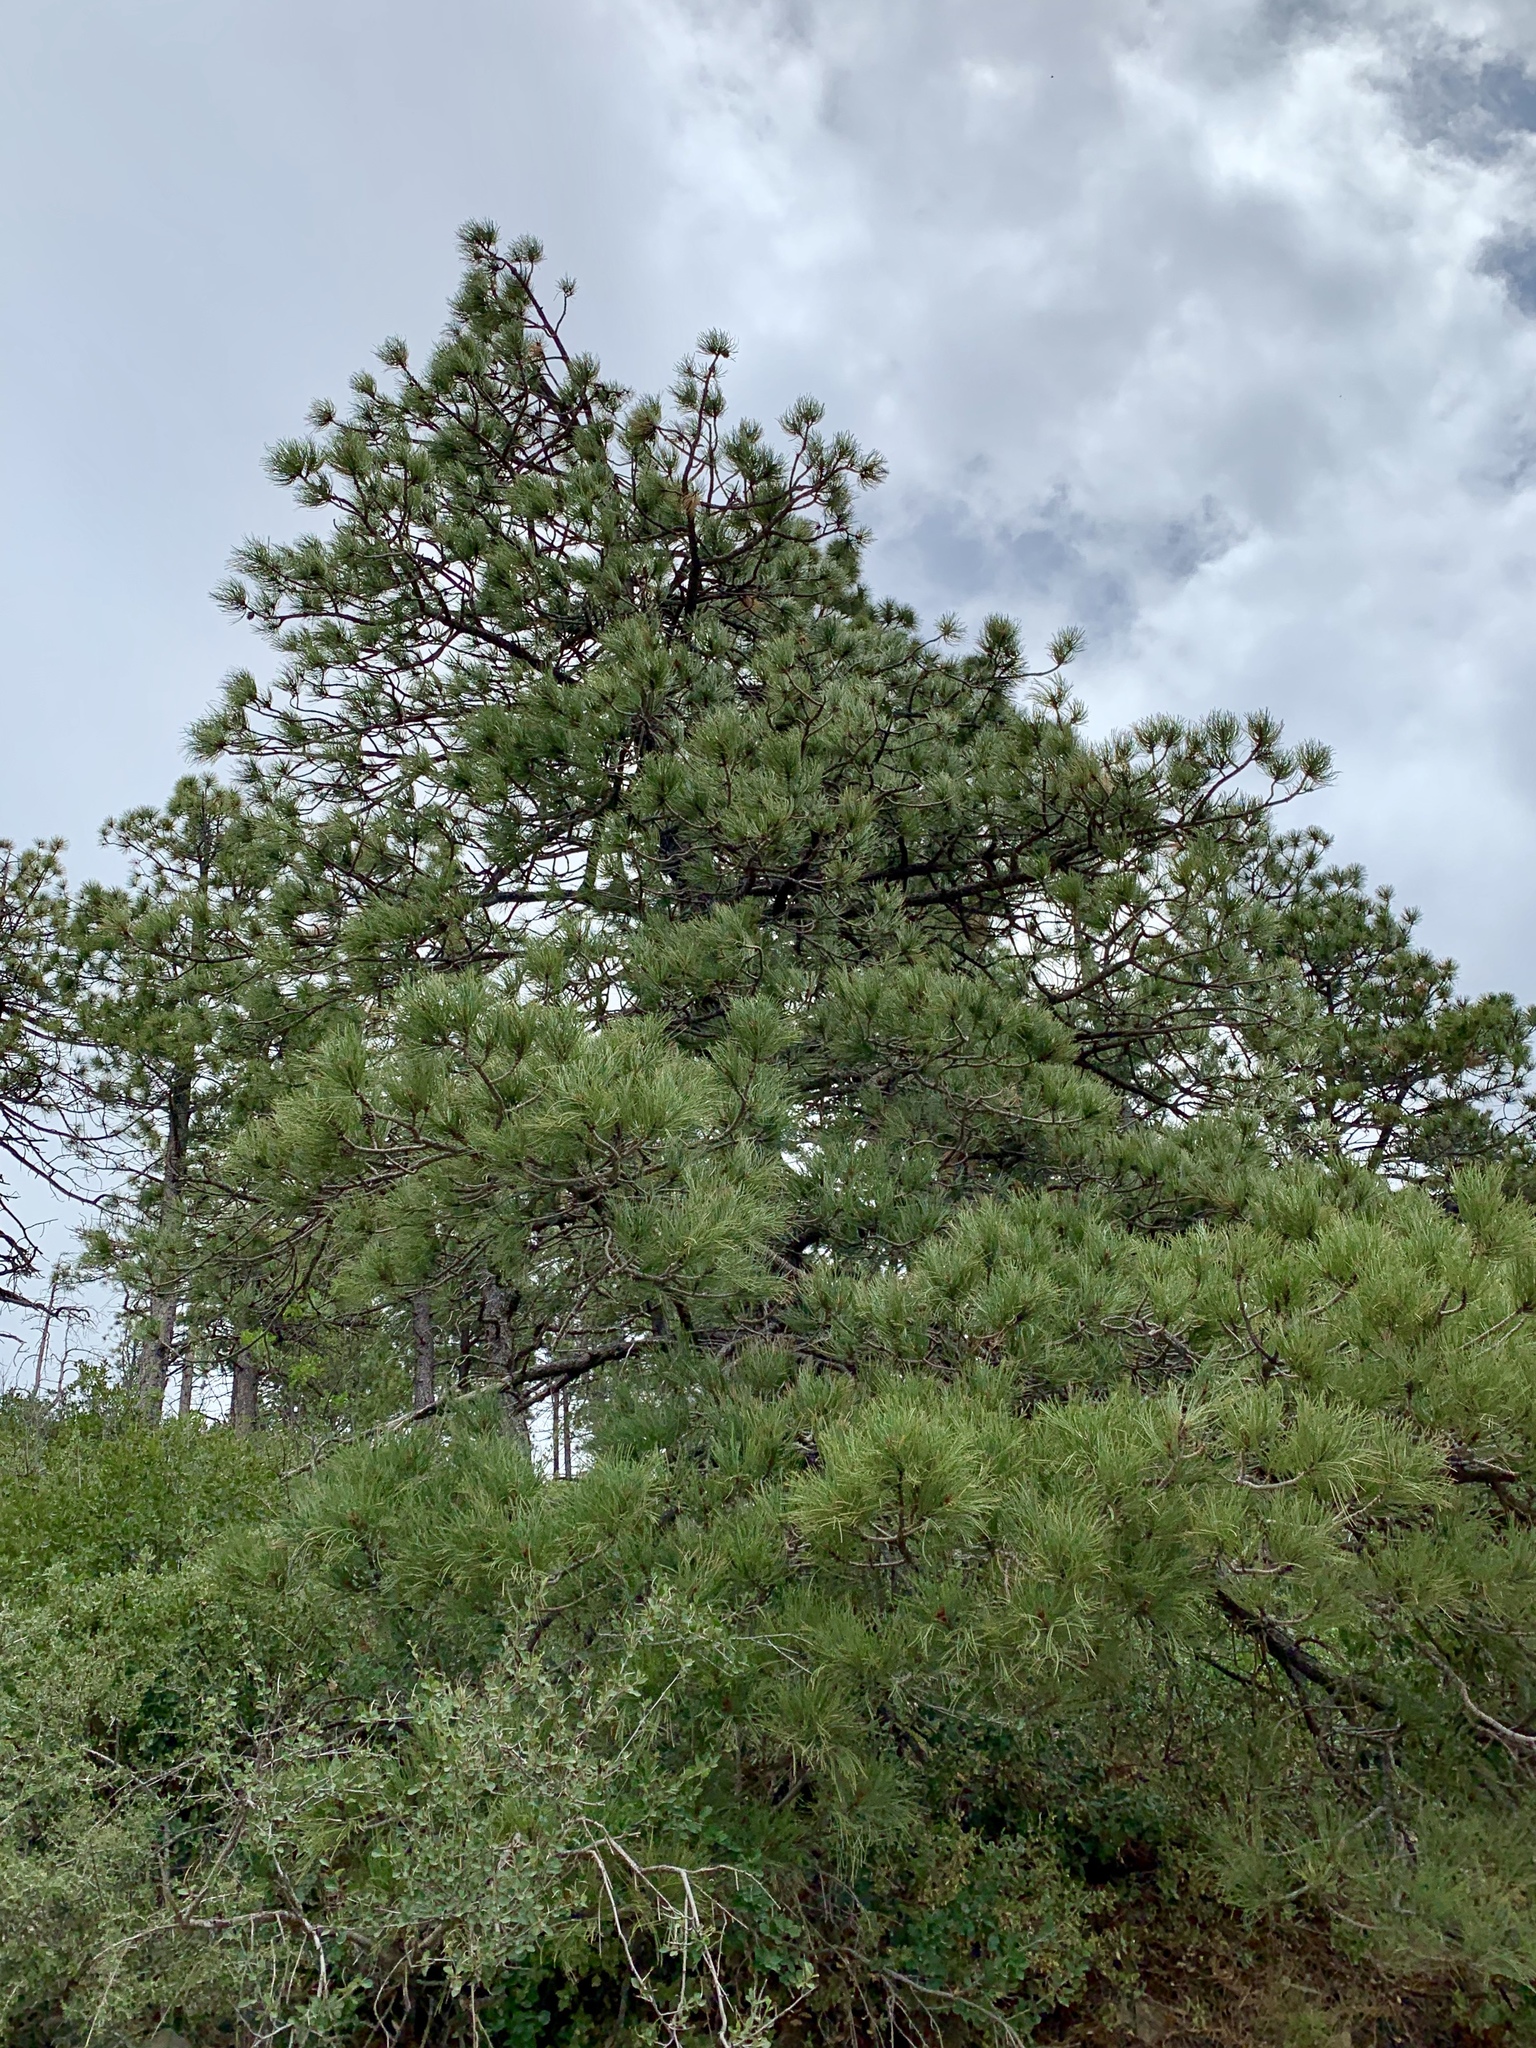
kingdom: Plantae
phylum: Tracheophyta
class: Pinopsida
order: Pinales
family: Pinaceae
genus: Pinus
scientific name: Pinus ponderosa
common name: Western yellow-pine
